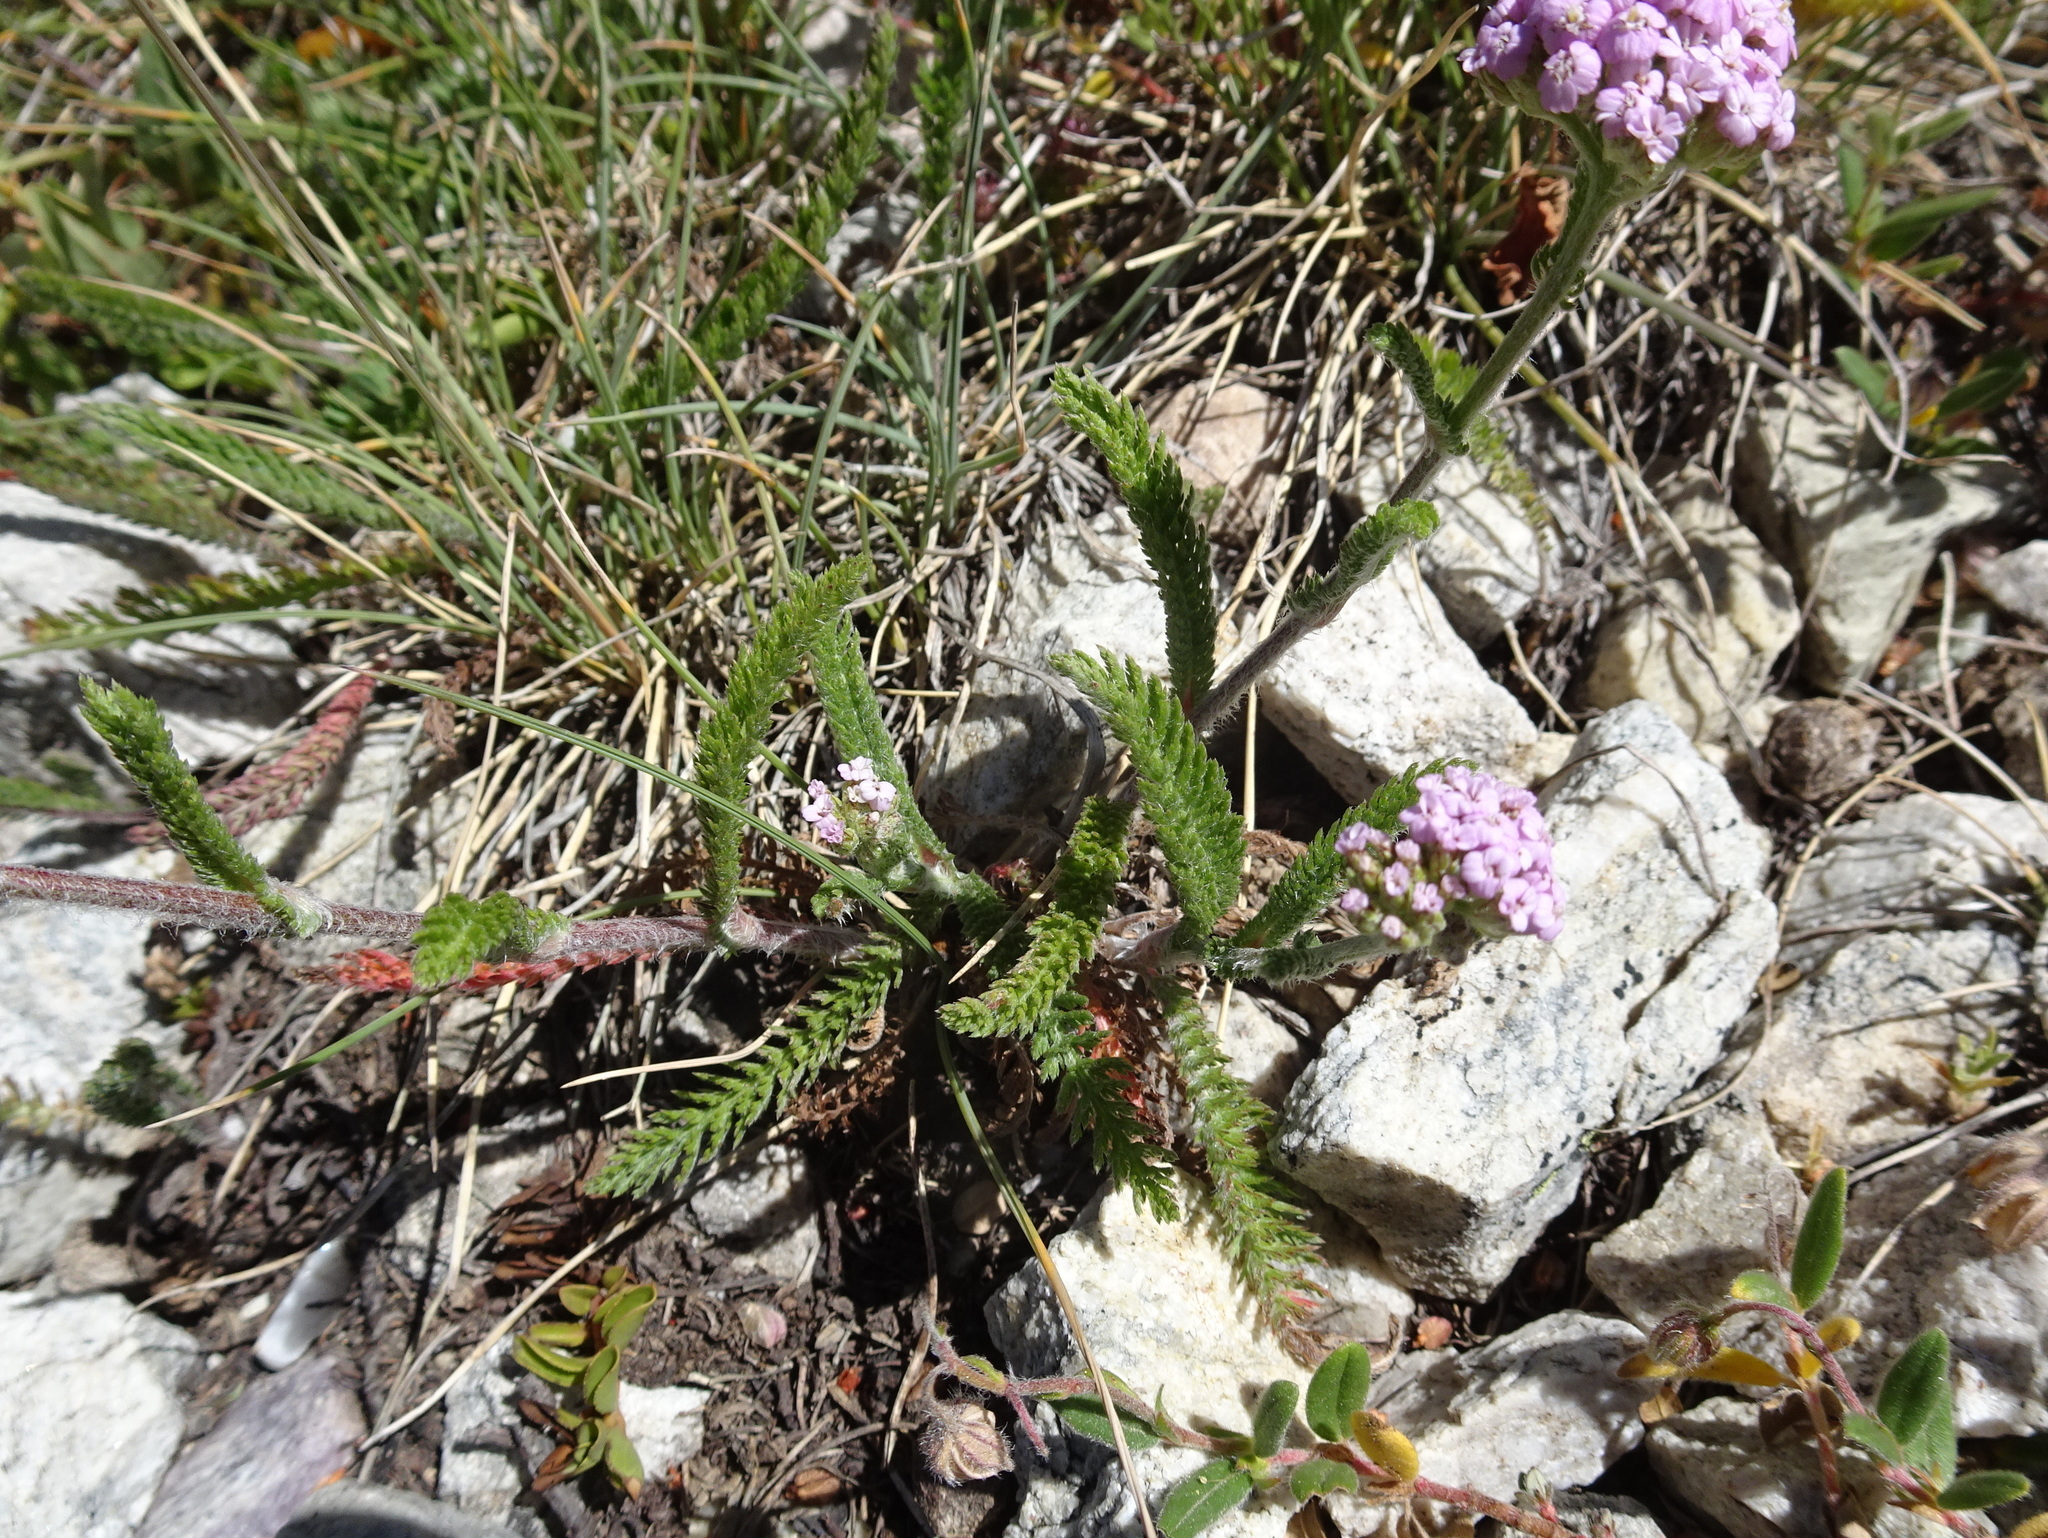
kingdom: Plantae
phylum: Tracheophyta
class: Magnoliopsida
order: Asterales
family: Asteraceae
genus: Achillea
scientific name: Achillea millefolium
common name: Yarrow
